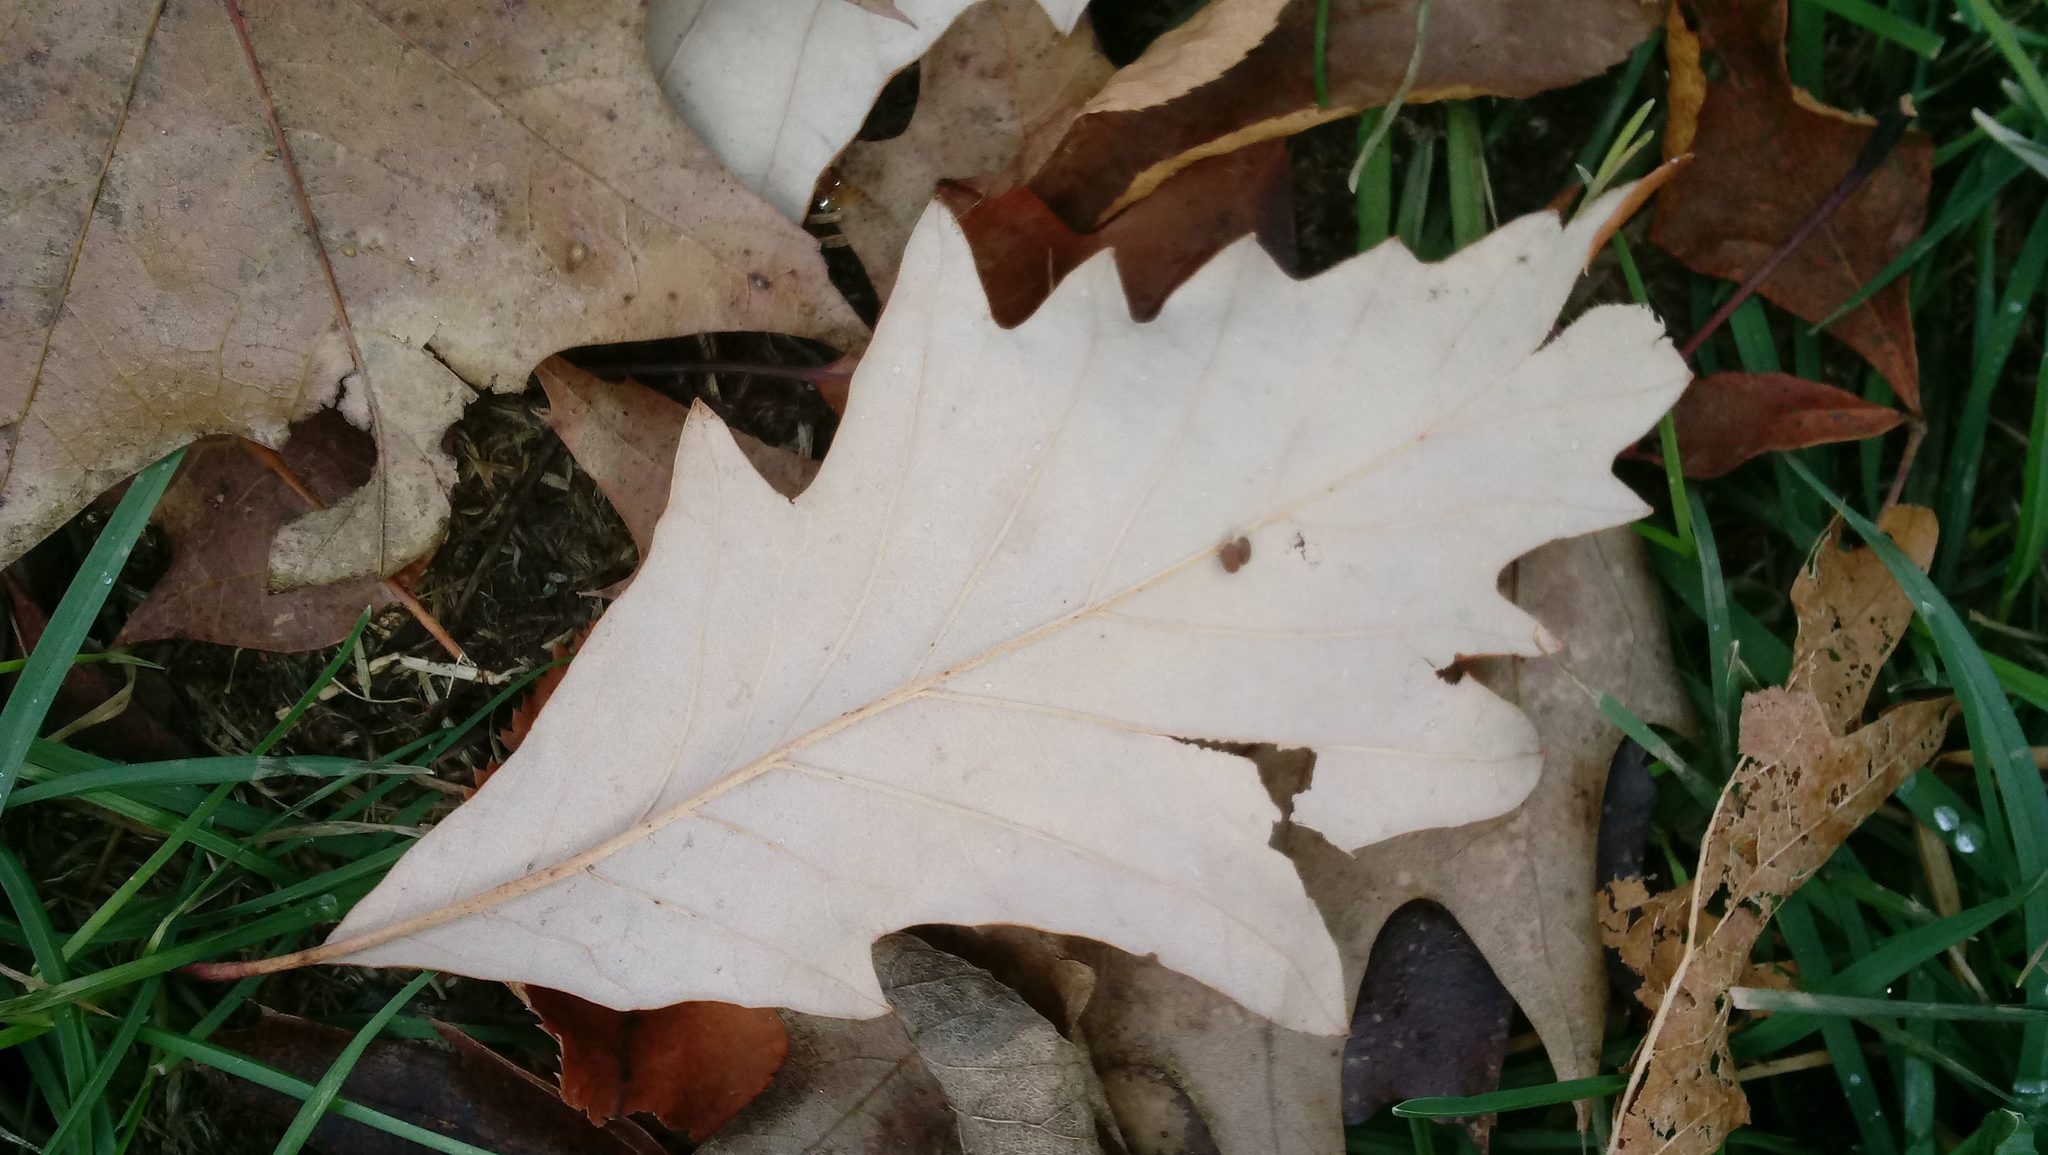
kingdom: Animalia
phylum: Arthropoda
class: Insecta
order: Hymenoptera
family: Cynipidae
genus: Andricus
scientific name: Andricus Druon ignotum
